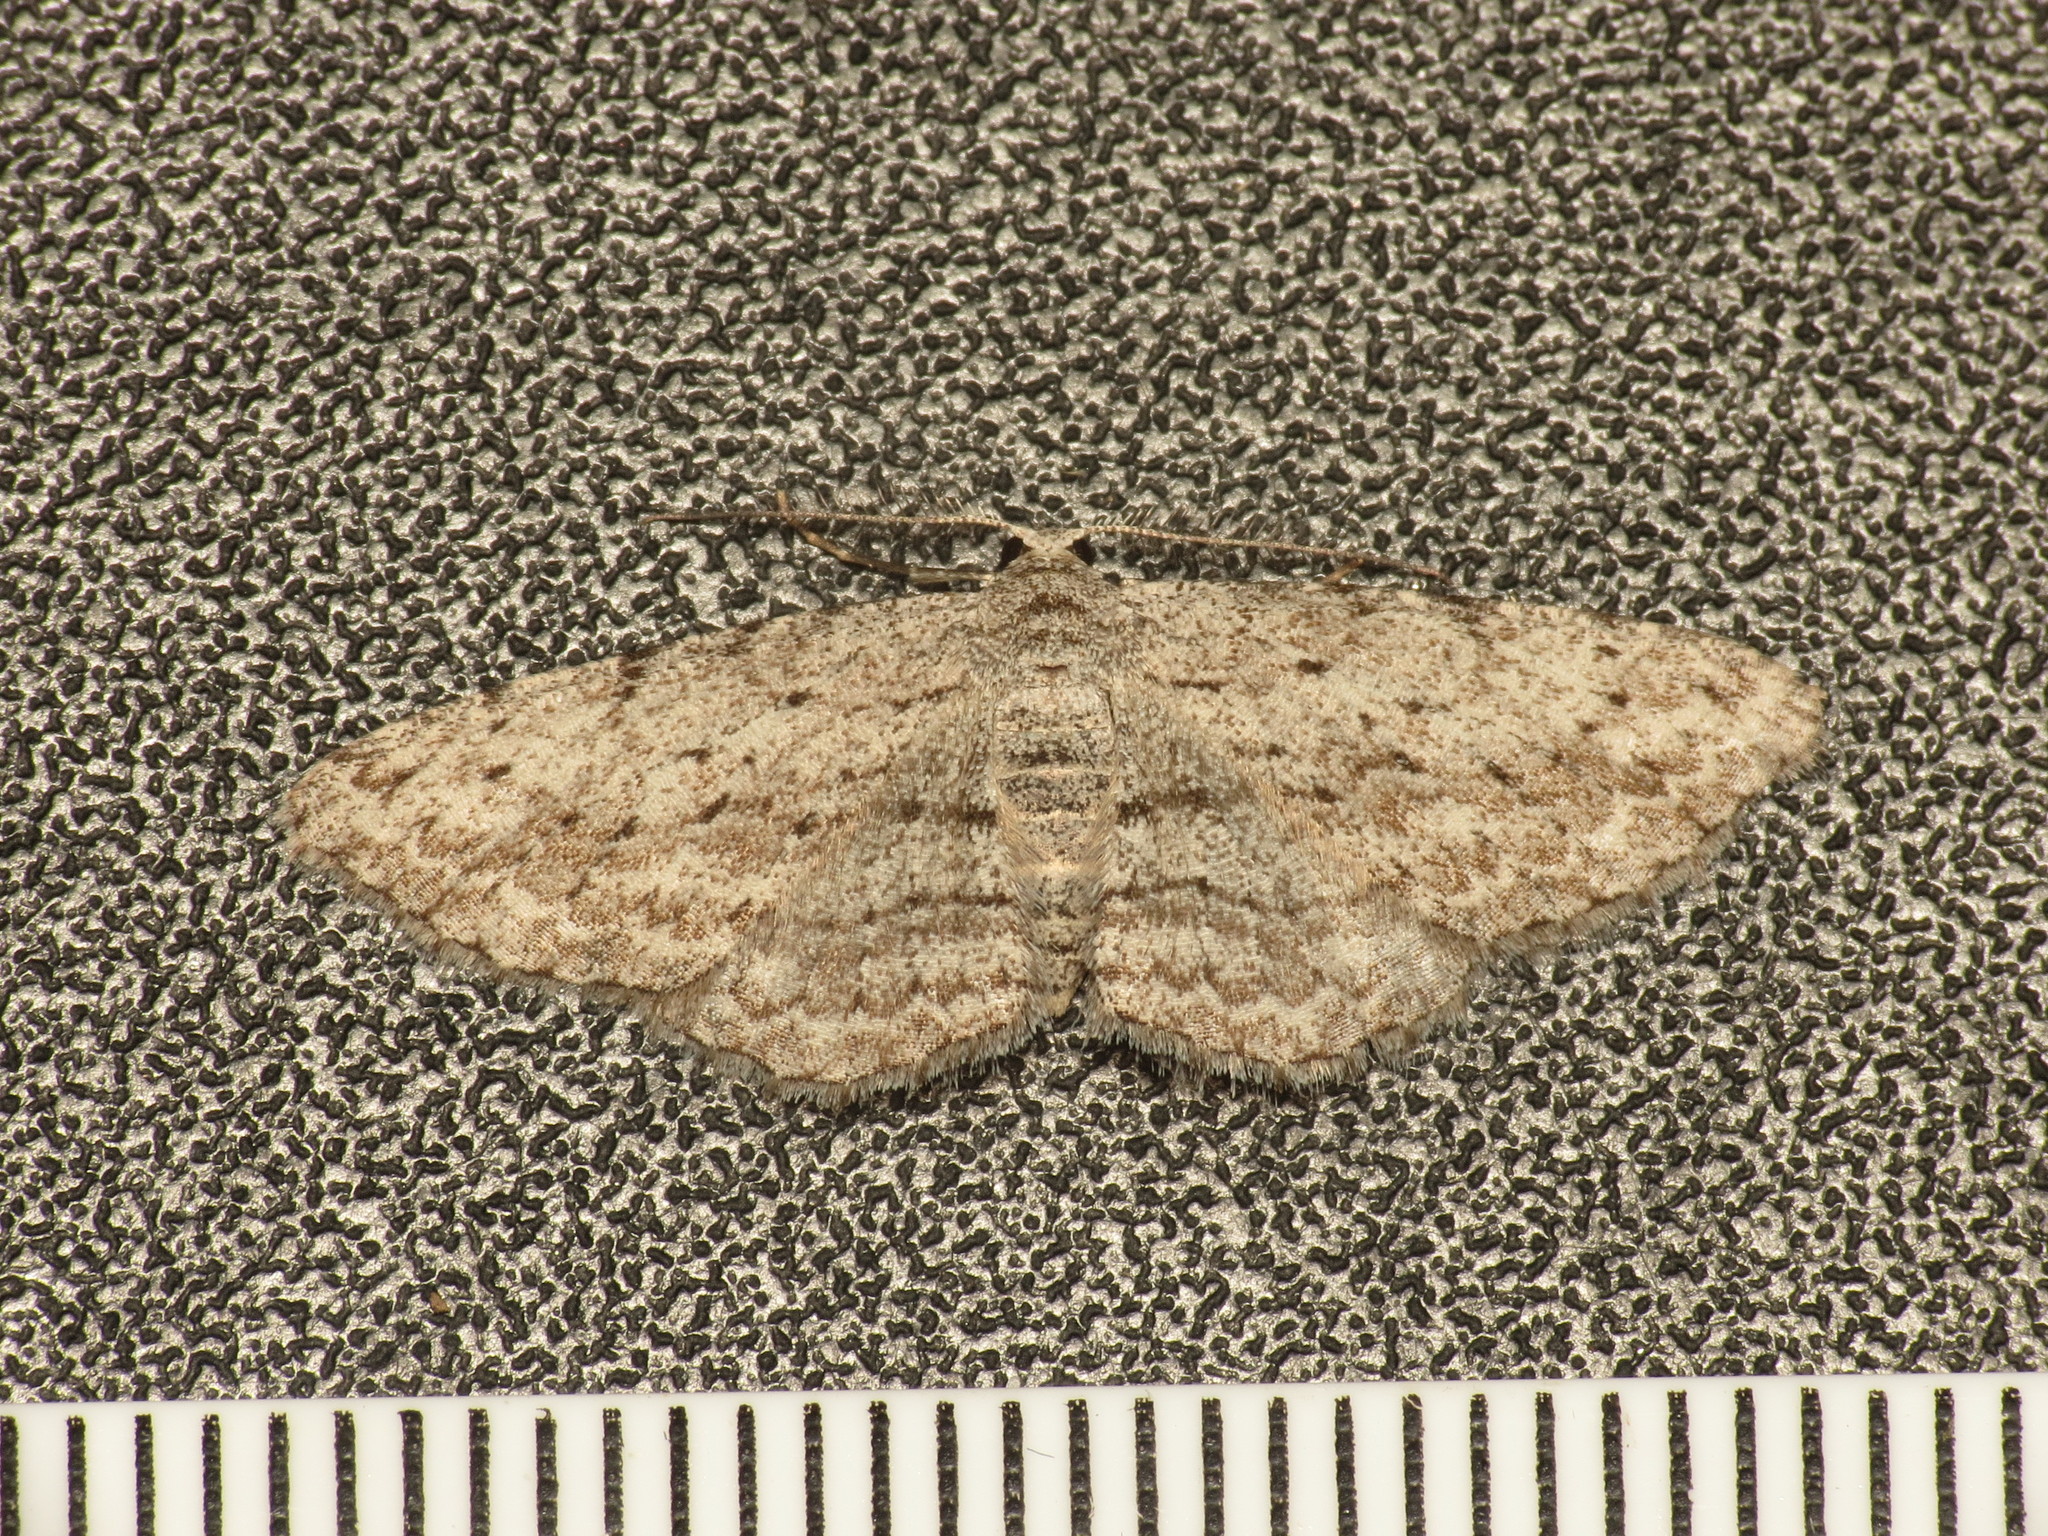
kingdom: Animalia
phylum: Arthropoda
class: Insecta
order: Lepidoptera
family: Geometridae
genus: Phelotis
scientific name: Phelotis cognata
